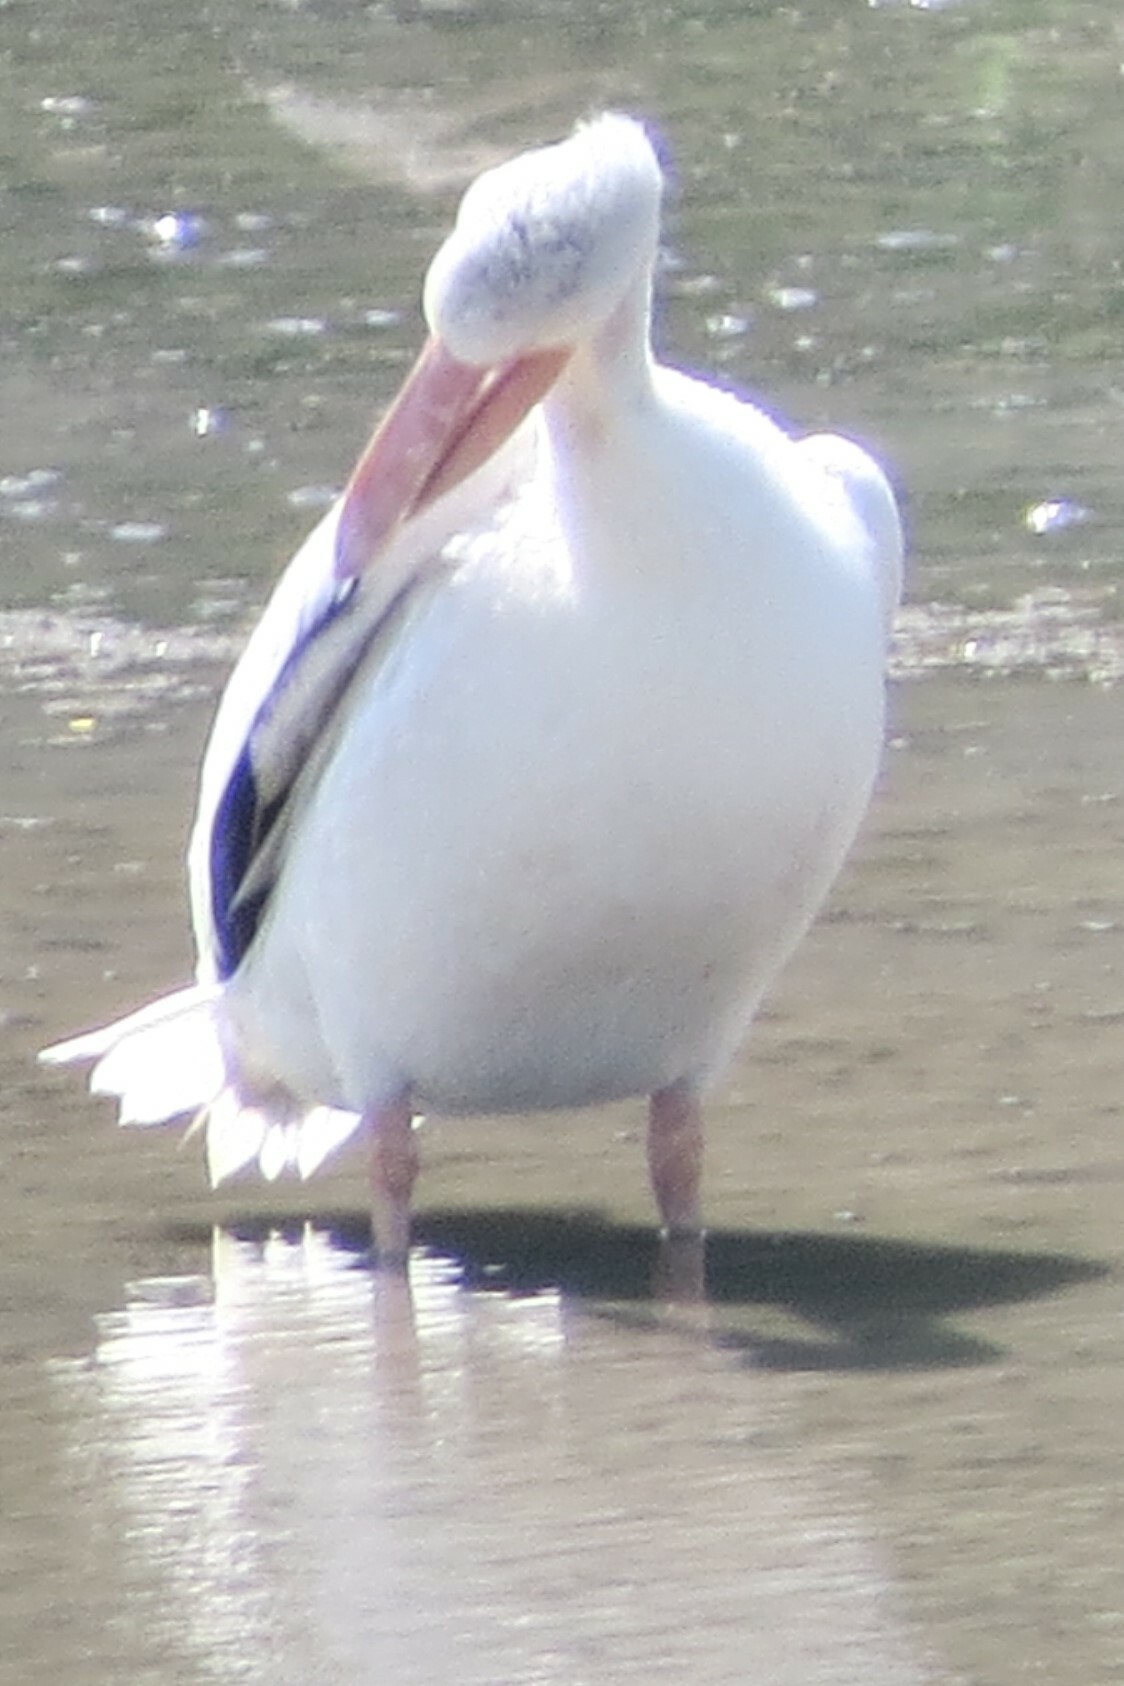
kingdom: Animalia
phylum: Chordata
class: Aves
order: Pelecaniformes
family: Pelecanidae
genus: Pelecanus
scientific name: Pelecanus erythrorhynchos
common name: American white pelican
